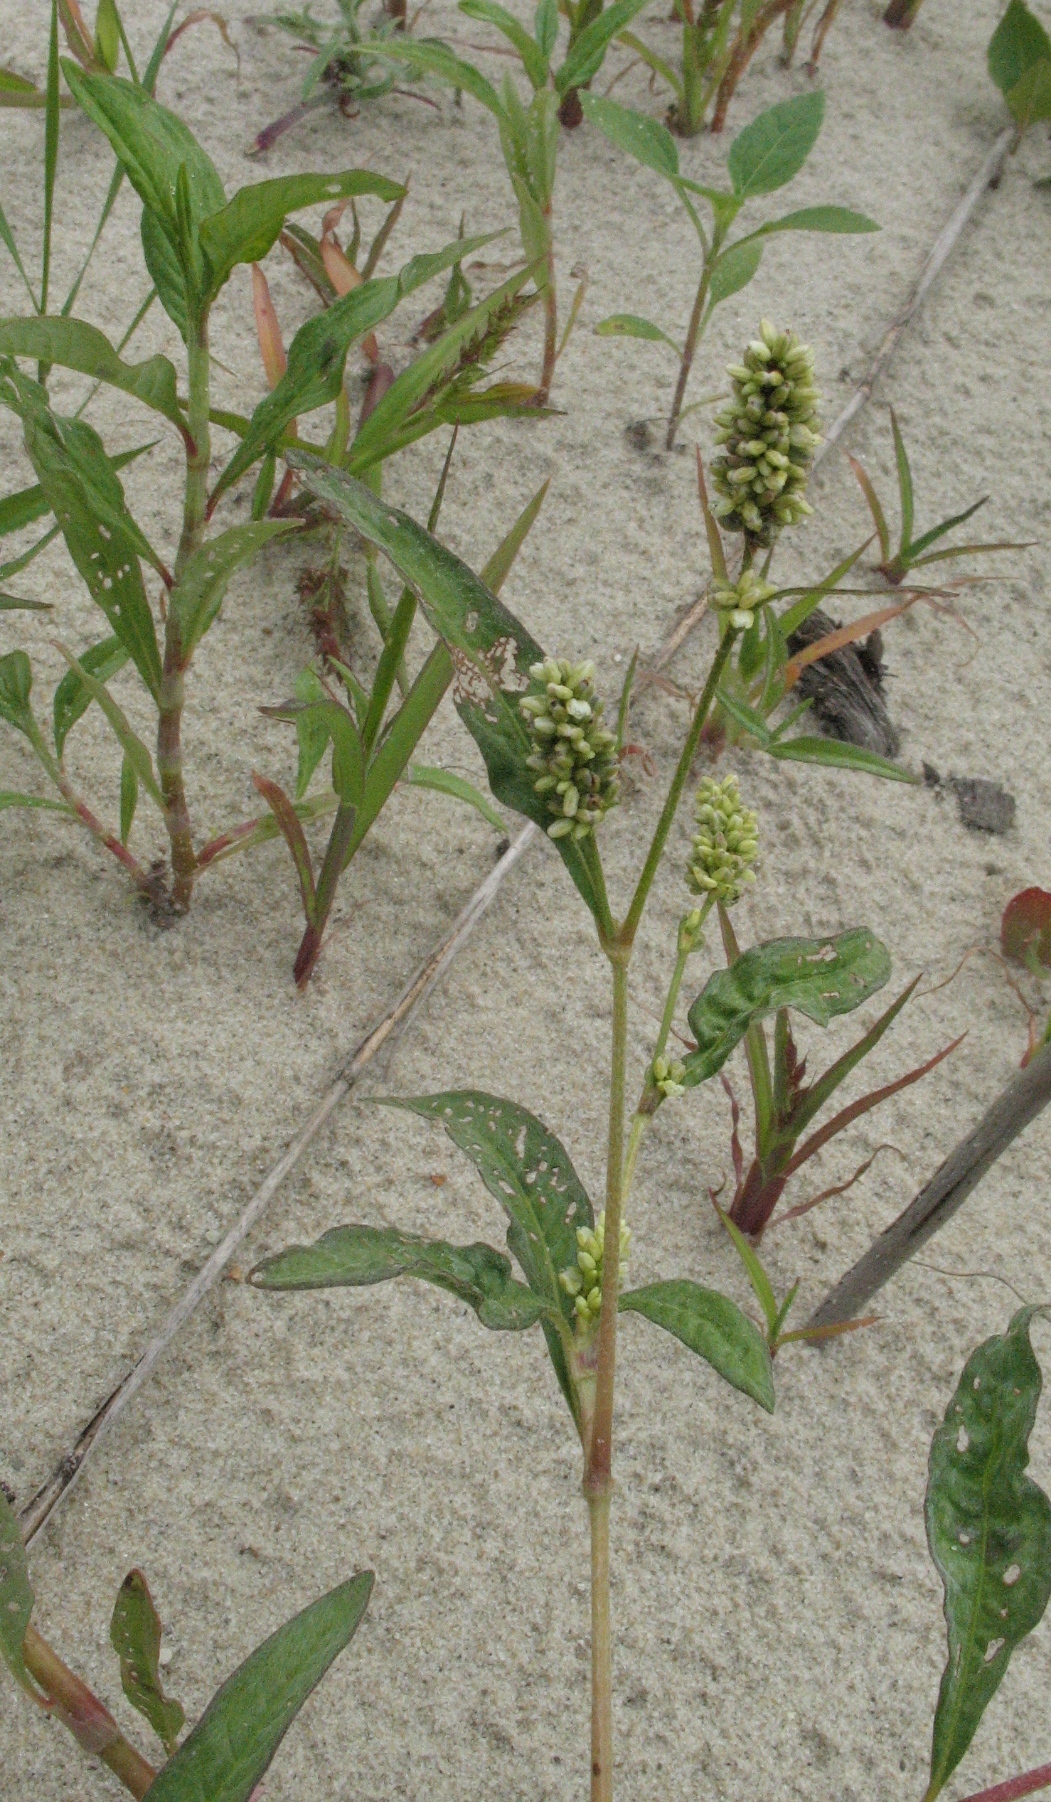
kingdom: Plantae
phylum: Tracheophyta
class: Magnoliopsida
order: Caryophyllales
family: Polygonaceae
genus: Persicaria
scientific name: Persicaria lapathifolia
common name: Curlytop knotweed
